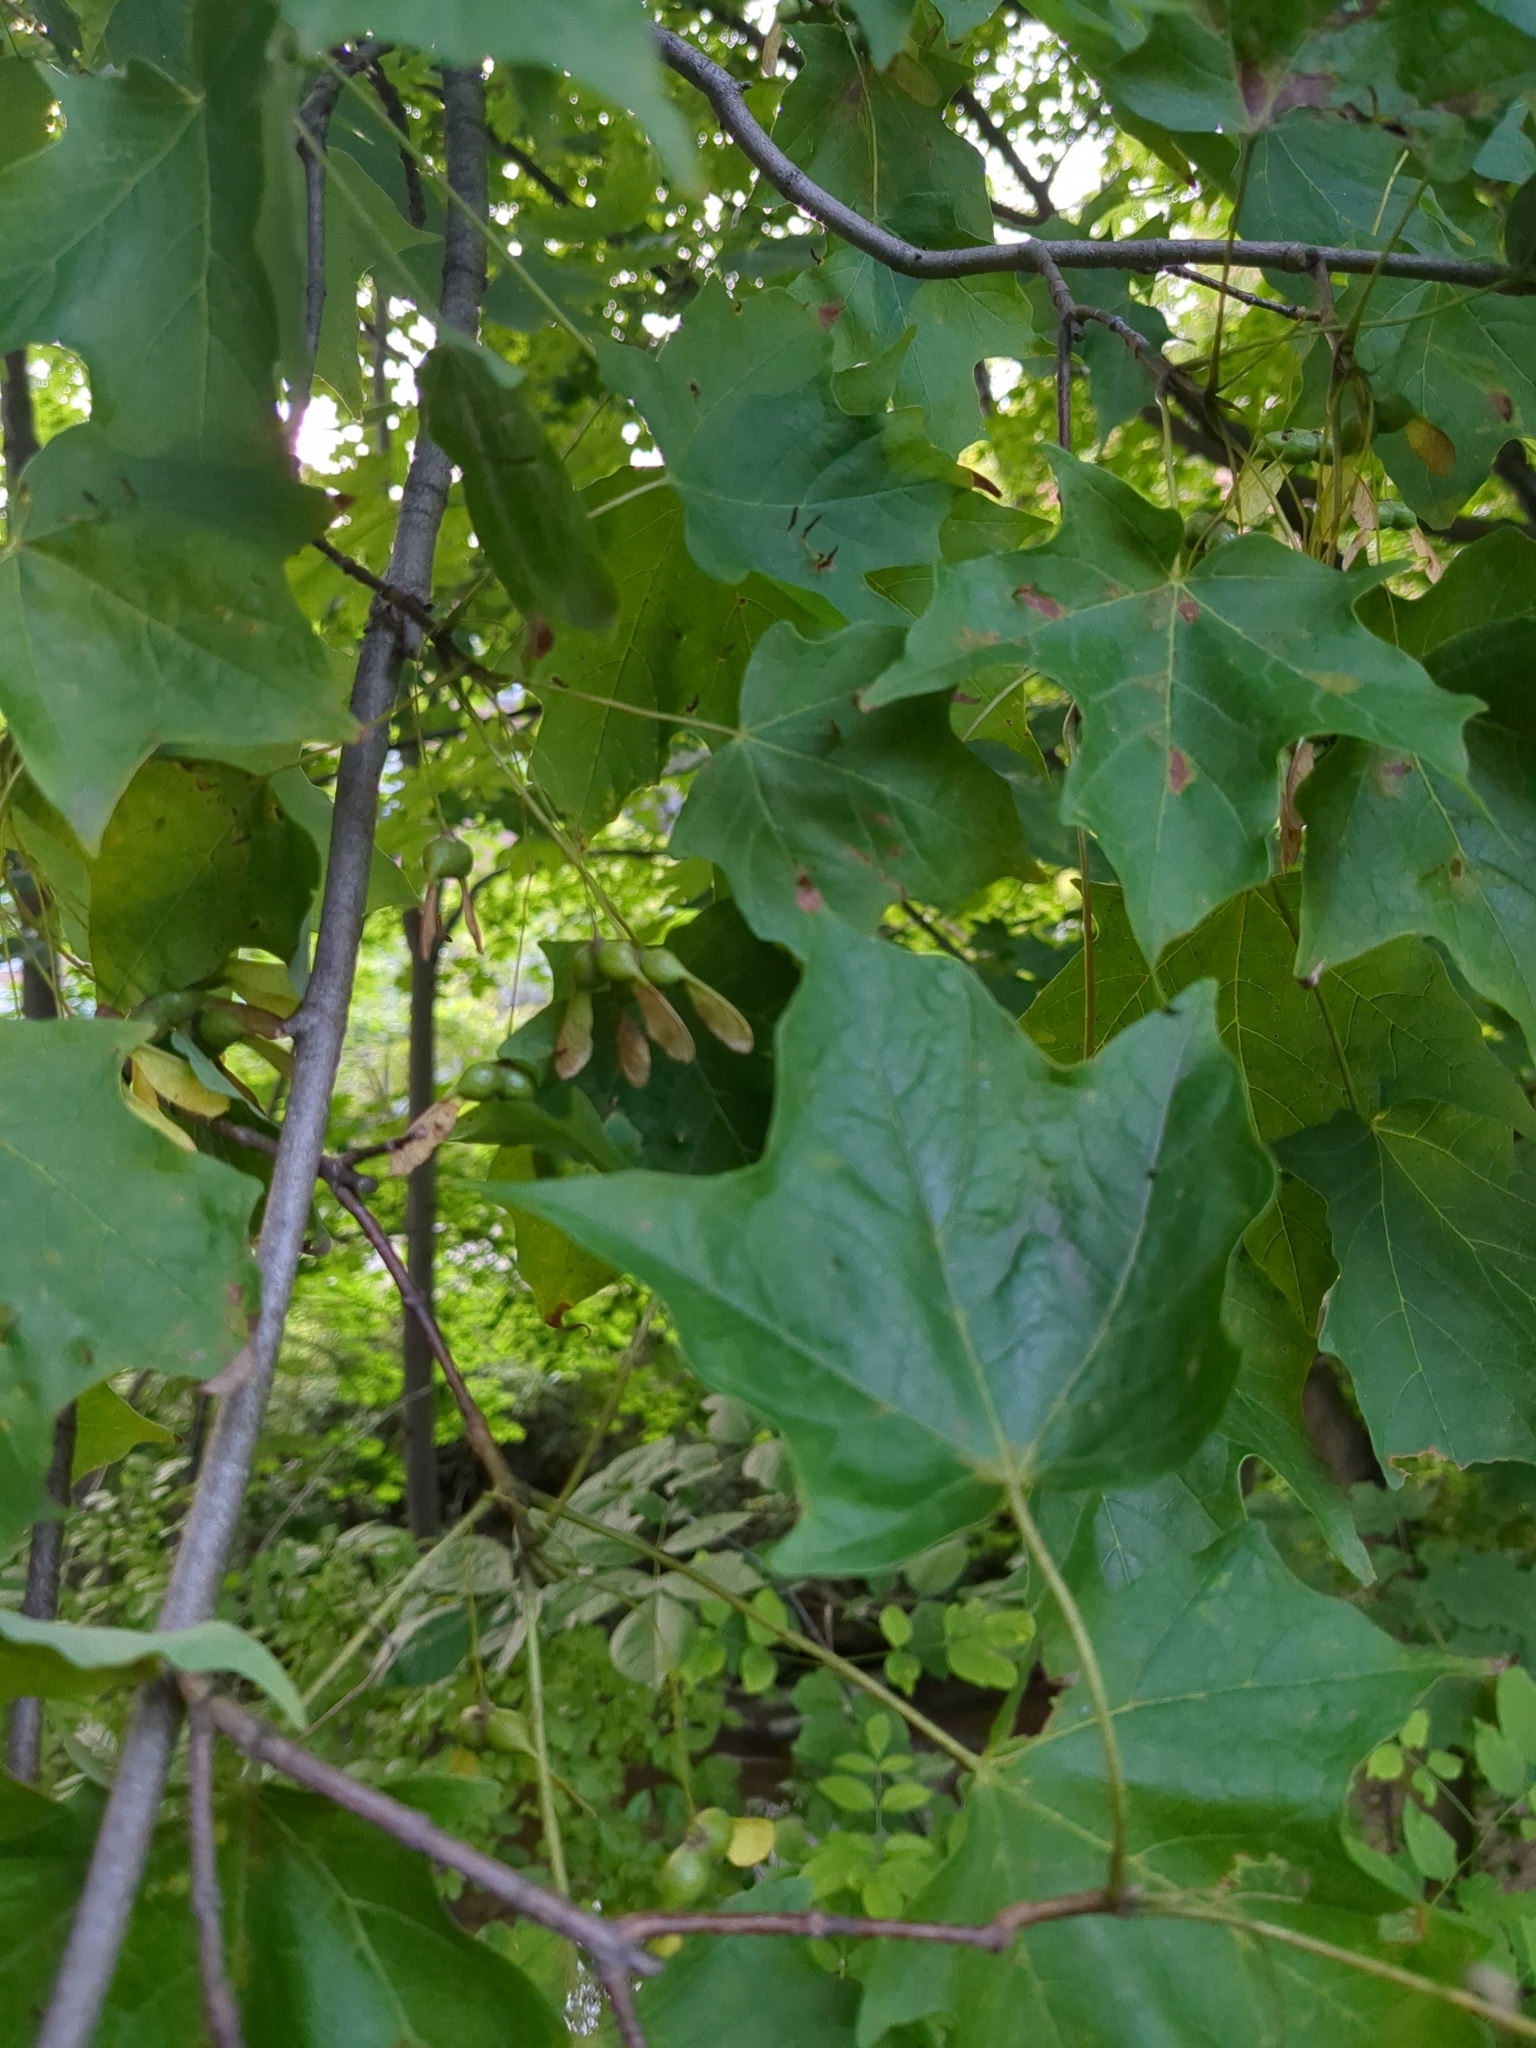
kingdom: Plantae
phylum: Tracheophyta
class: Magnoliopsida
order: Sapindales
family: Sapindaceae
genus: Acer
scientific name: Acer saccharum
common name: Sugar maple
